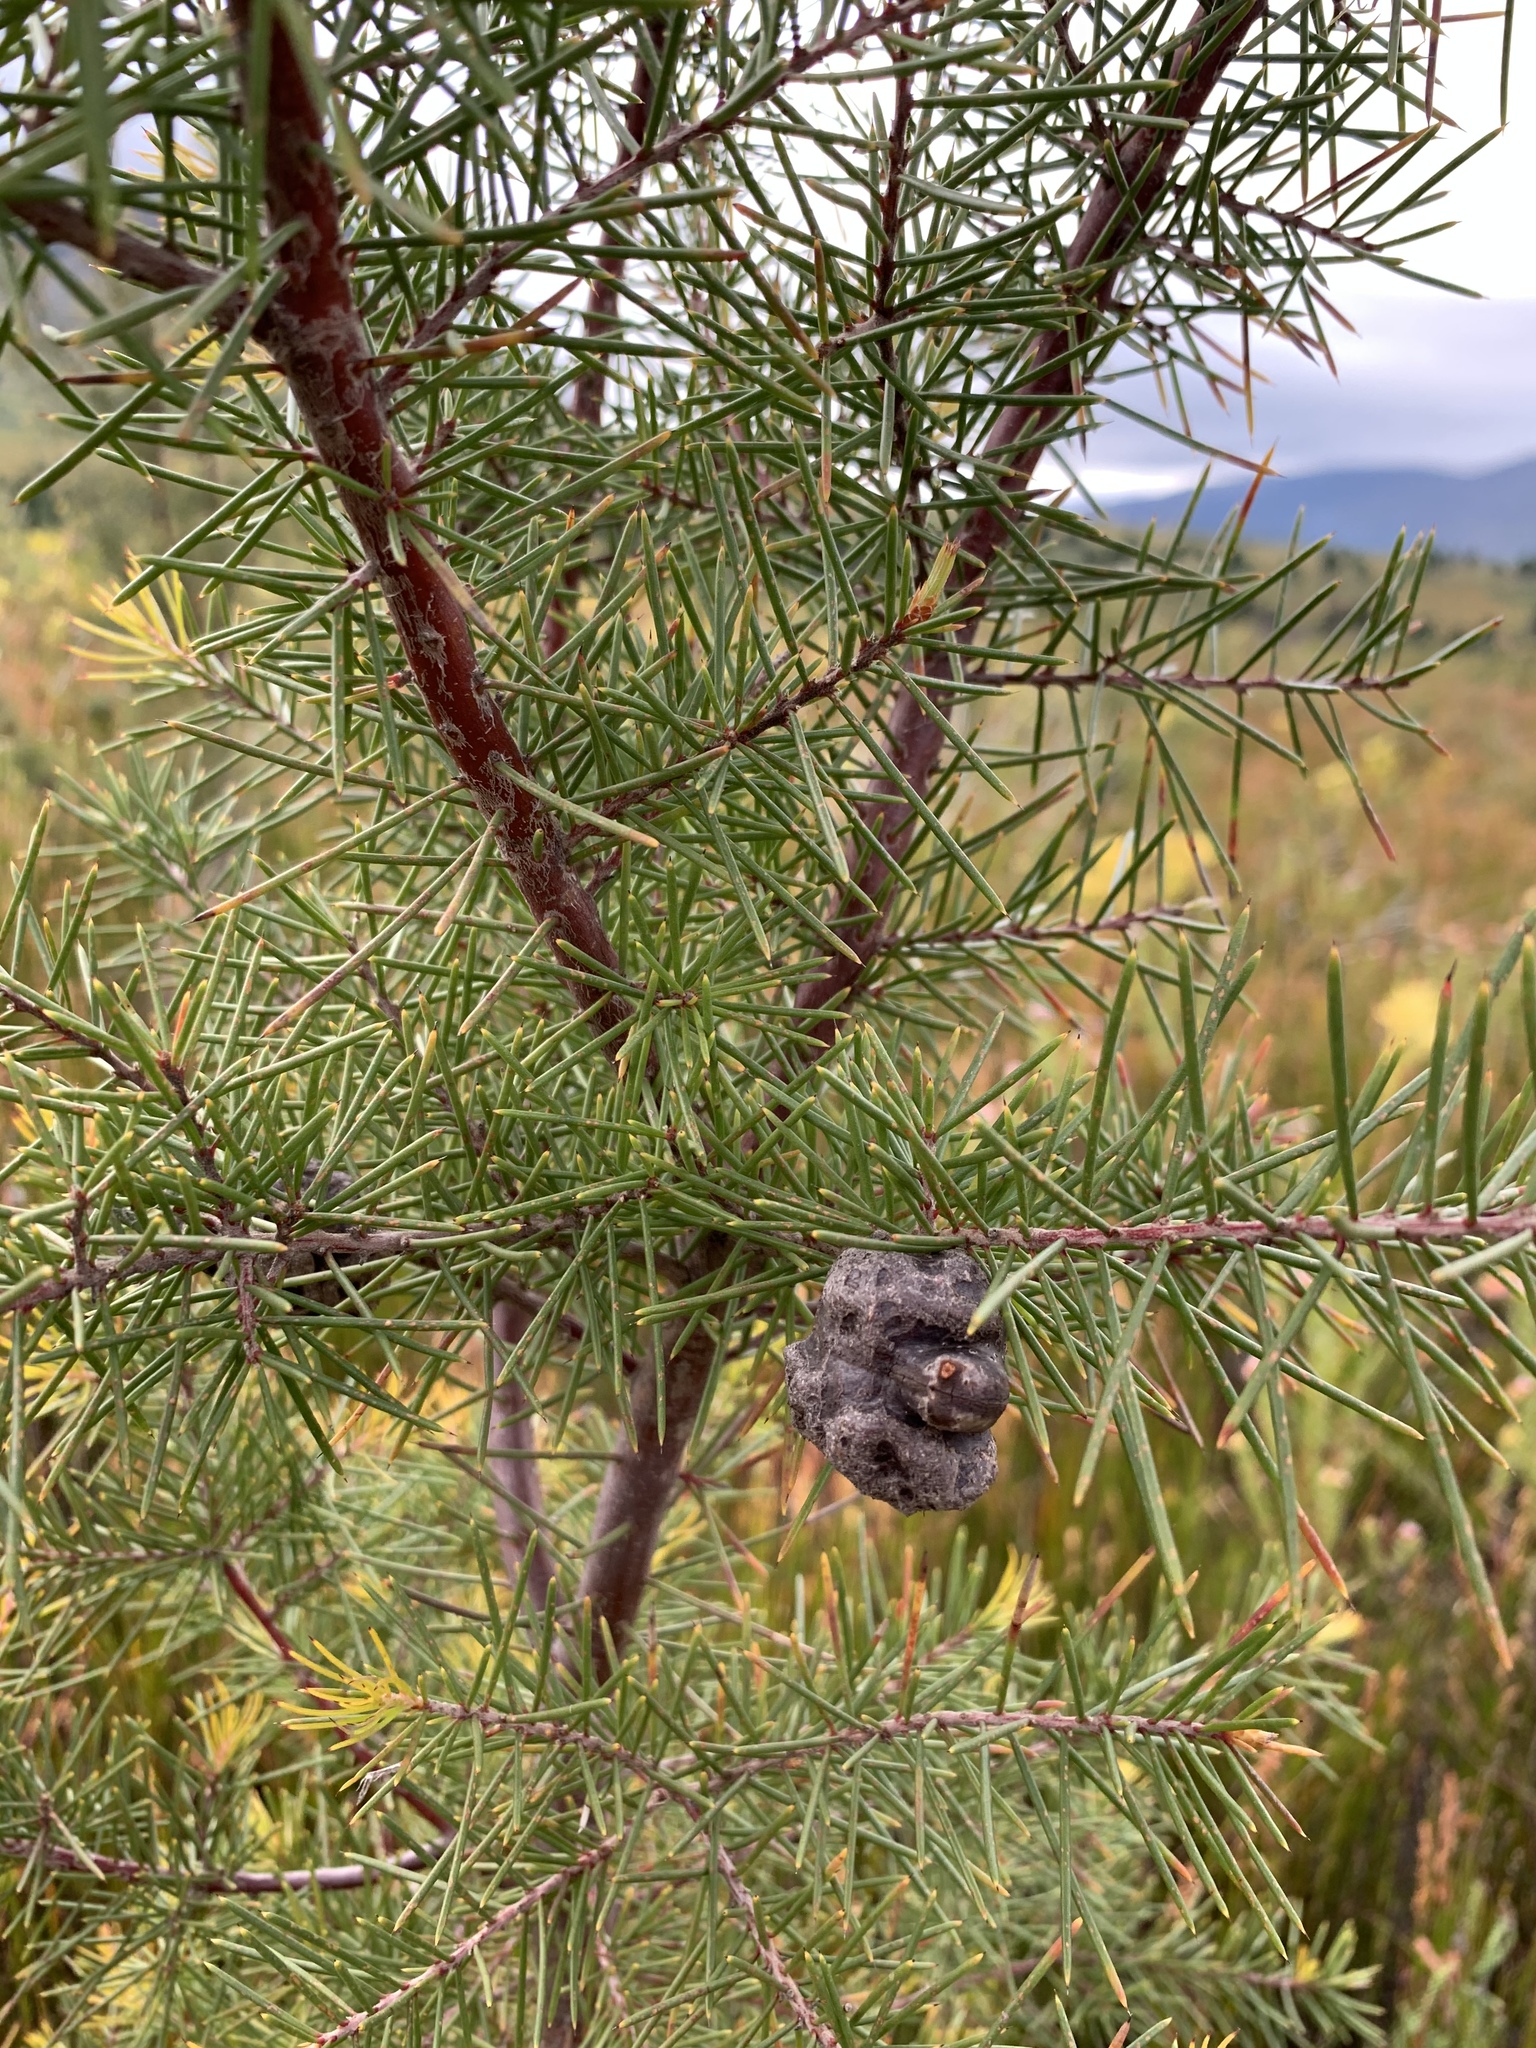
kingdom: Plantae
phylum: Tracheophyta
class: Magnoliopsida
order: Proteales
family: Proteaceae
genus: Hakea
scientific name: Hakea sericea
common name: Needle bush
